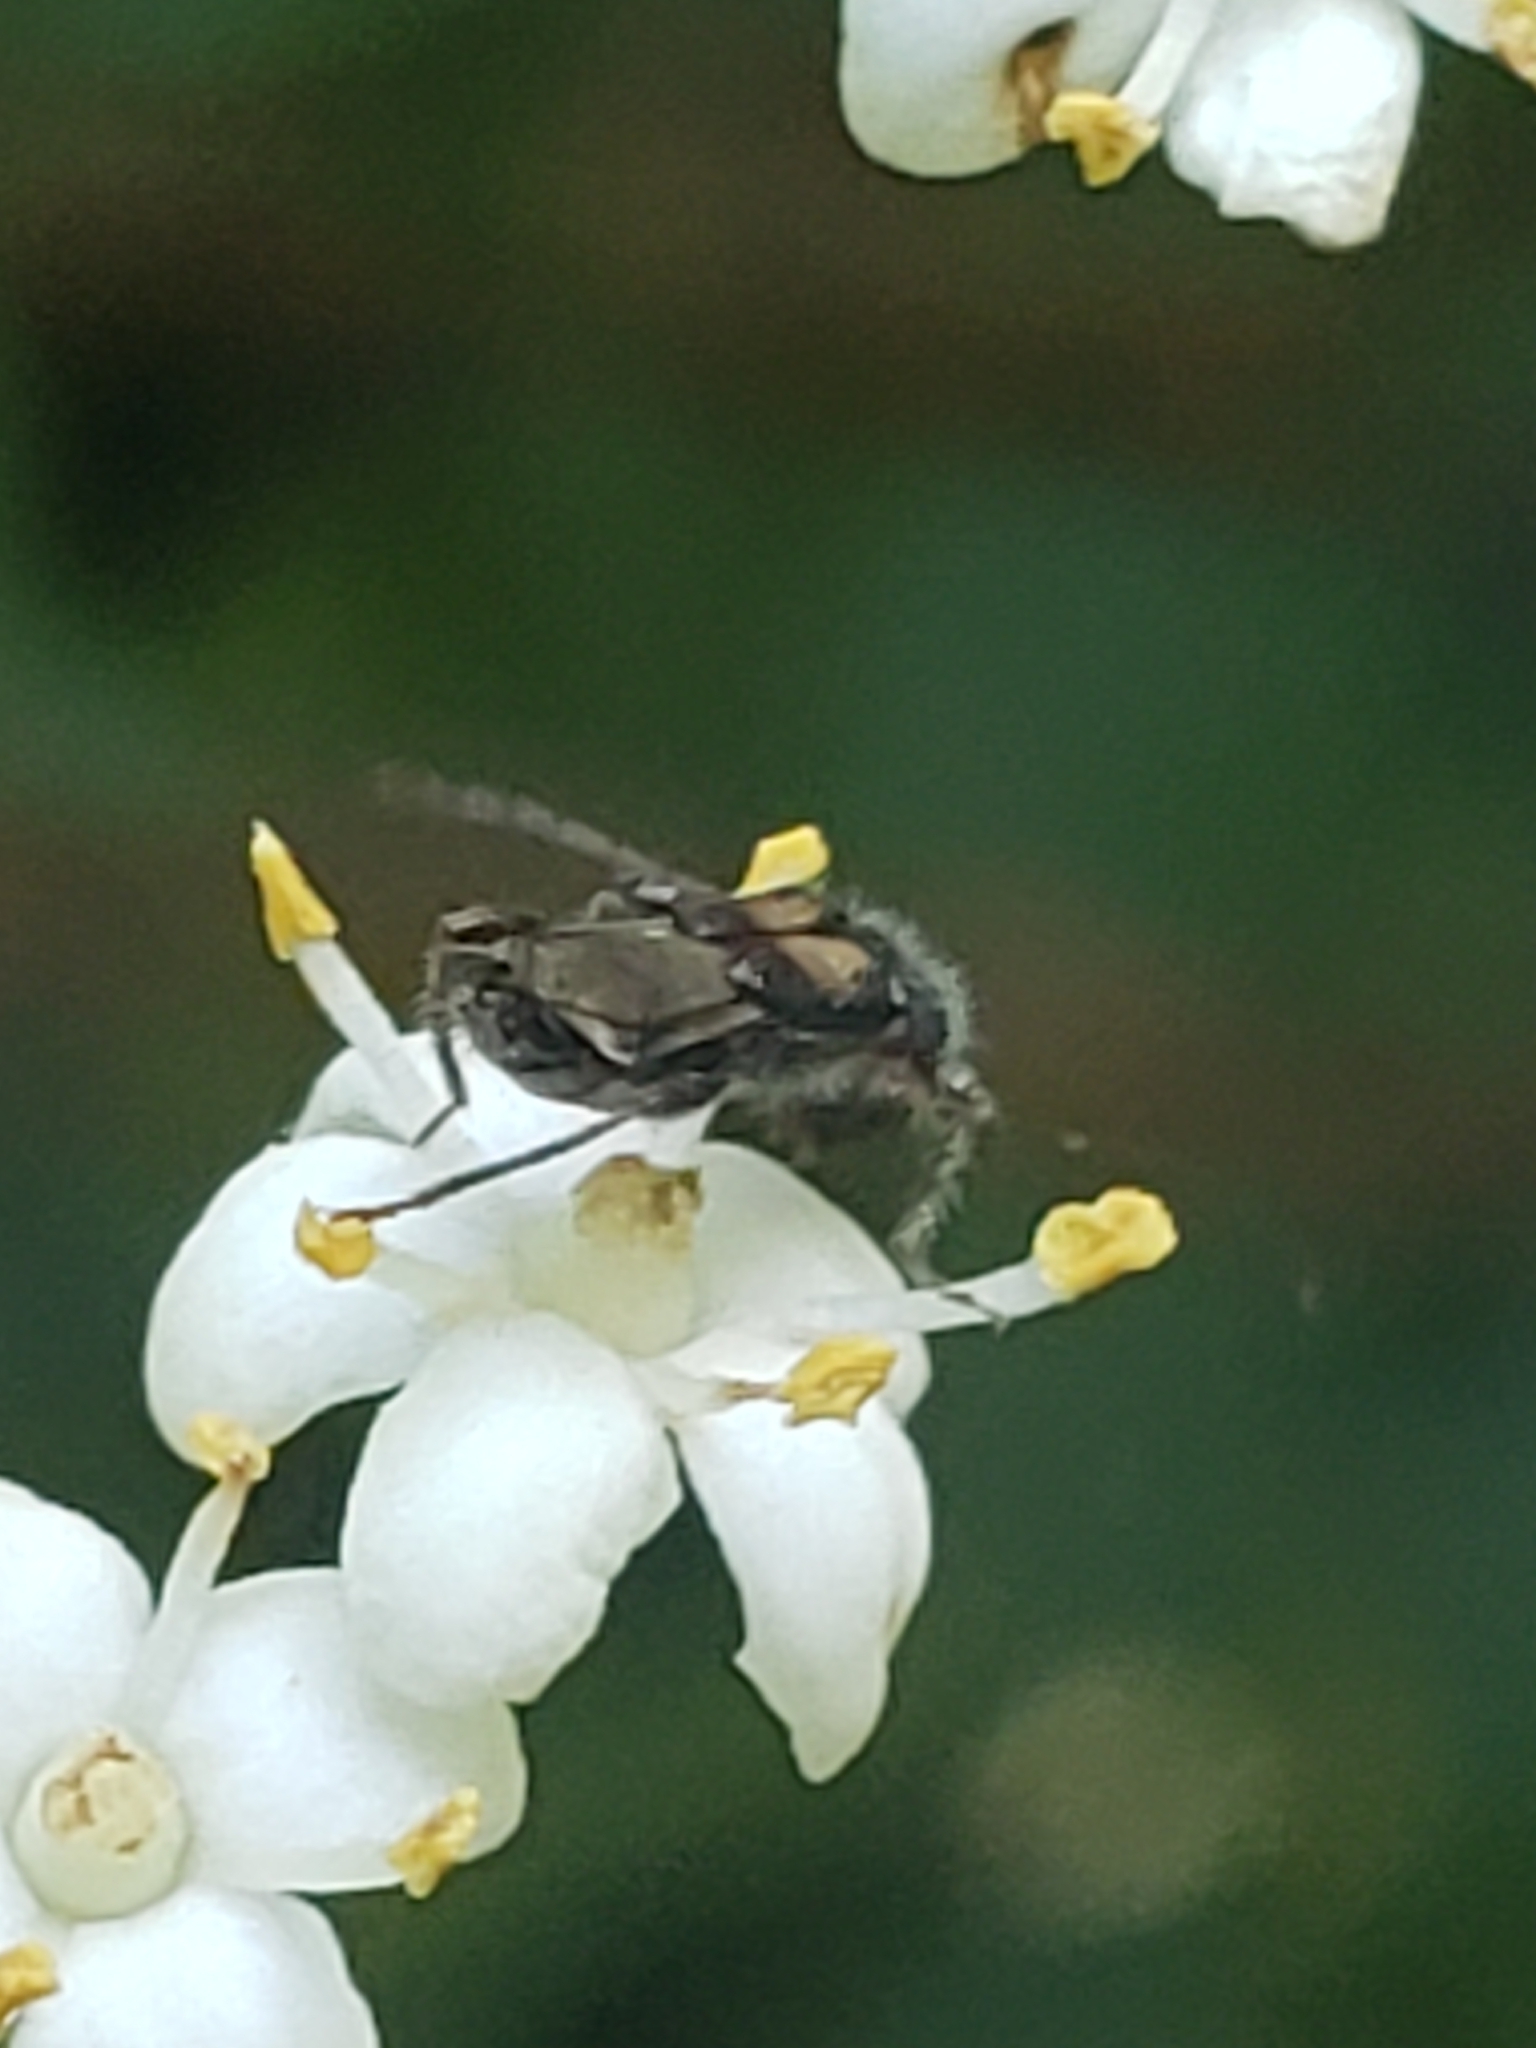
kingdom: Animalia
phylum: Arthropoda
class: Insecta
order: Coleoptera
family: Cerambycidae
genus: Molorchus
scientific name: Molorchus bimaculatus
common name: Bimaculate longhorn beetle
